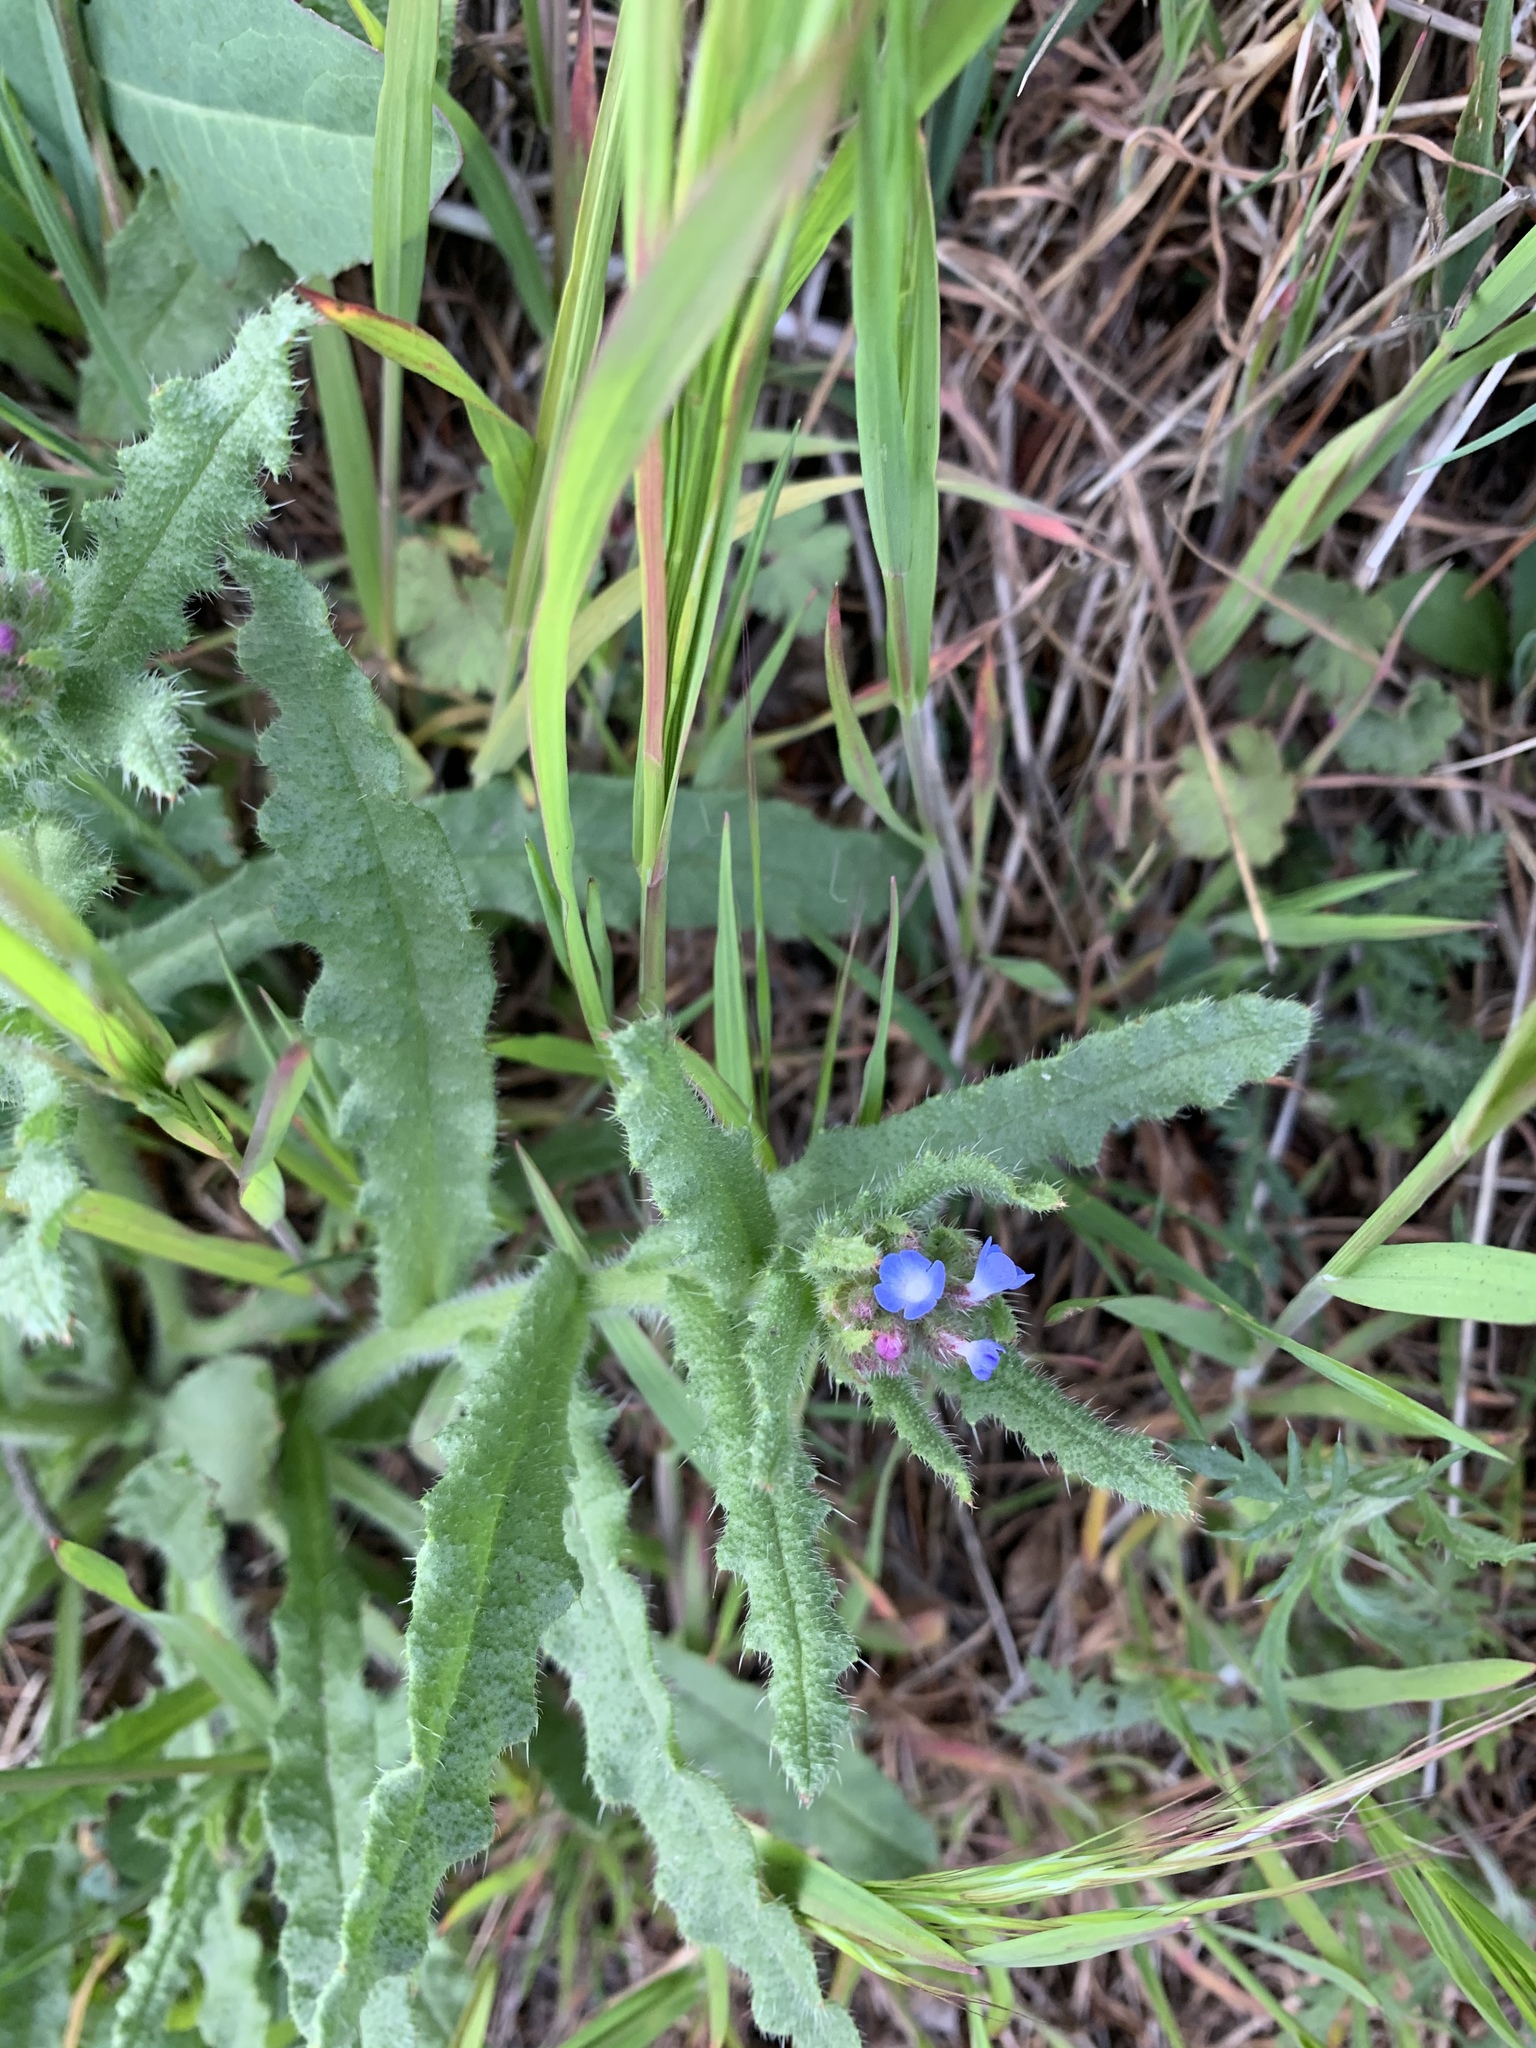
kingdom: Plantae
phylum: Tracheophyta
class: Magnoliopsida
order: Boraginales
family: Boraginaceae
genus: Lycopsis
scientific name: Lycopsis arvensis
